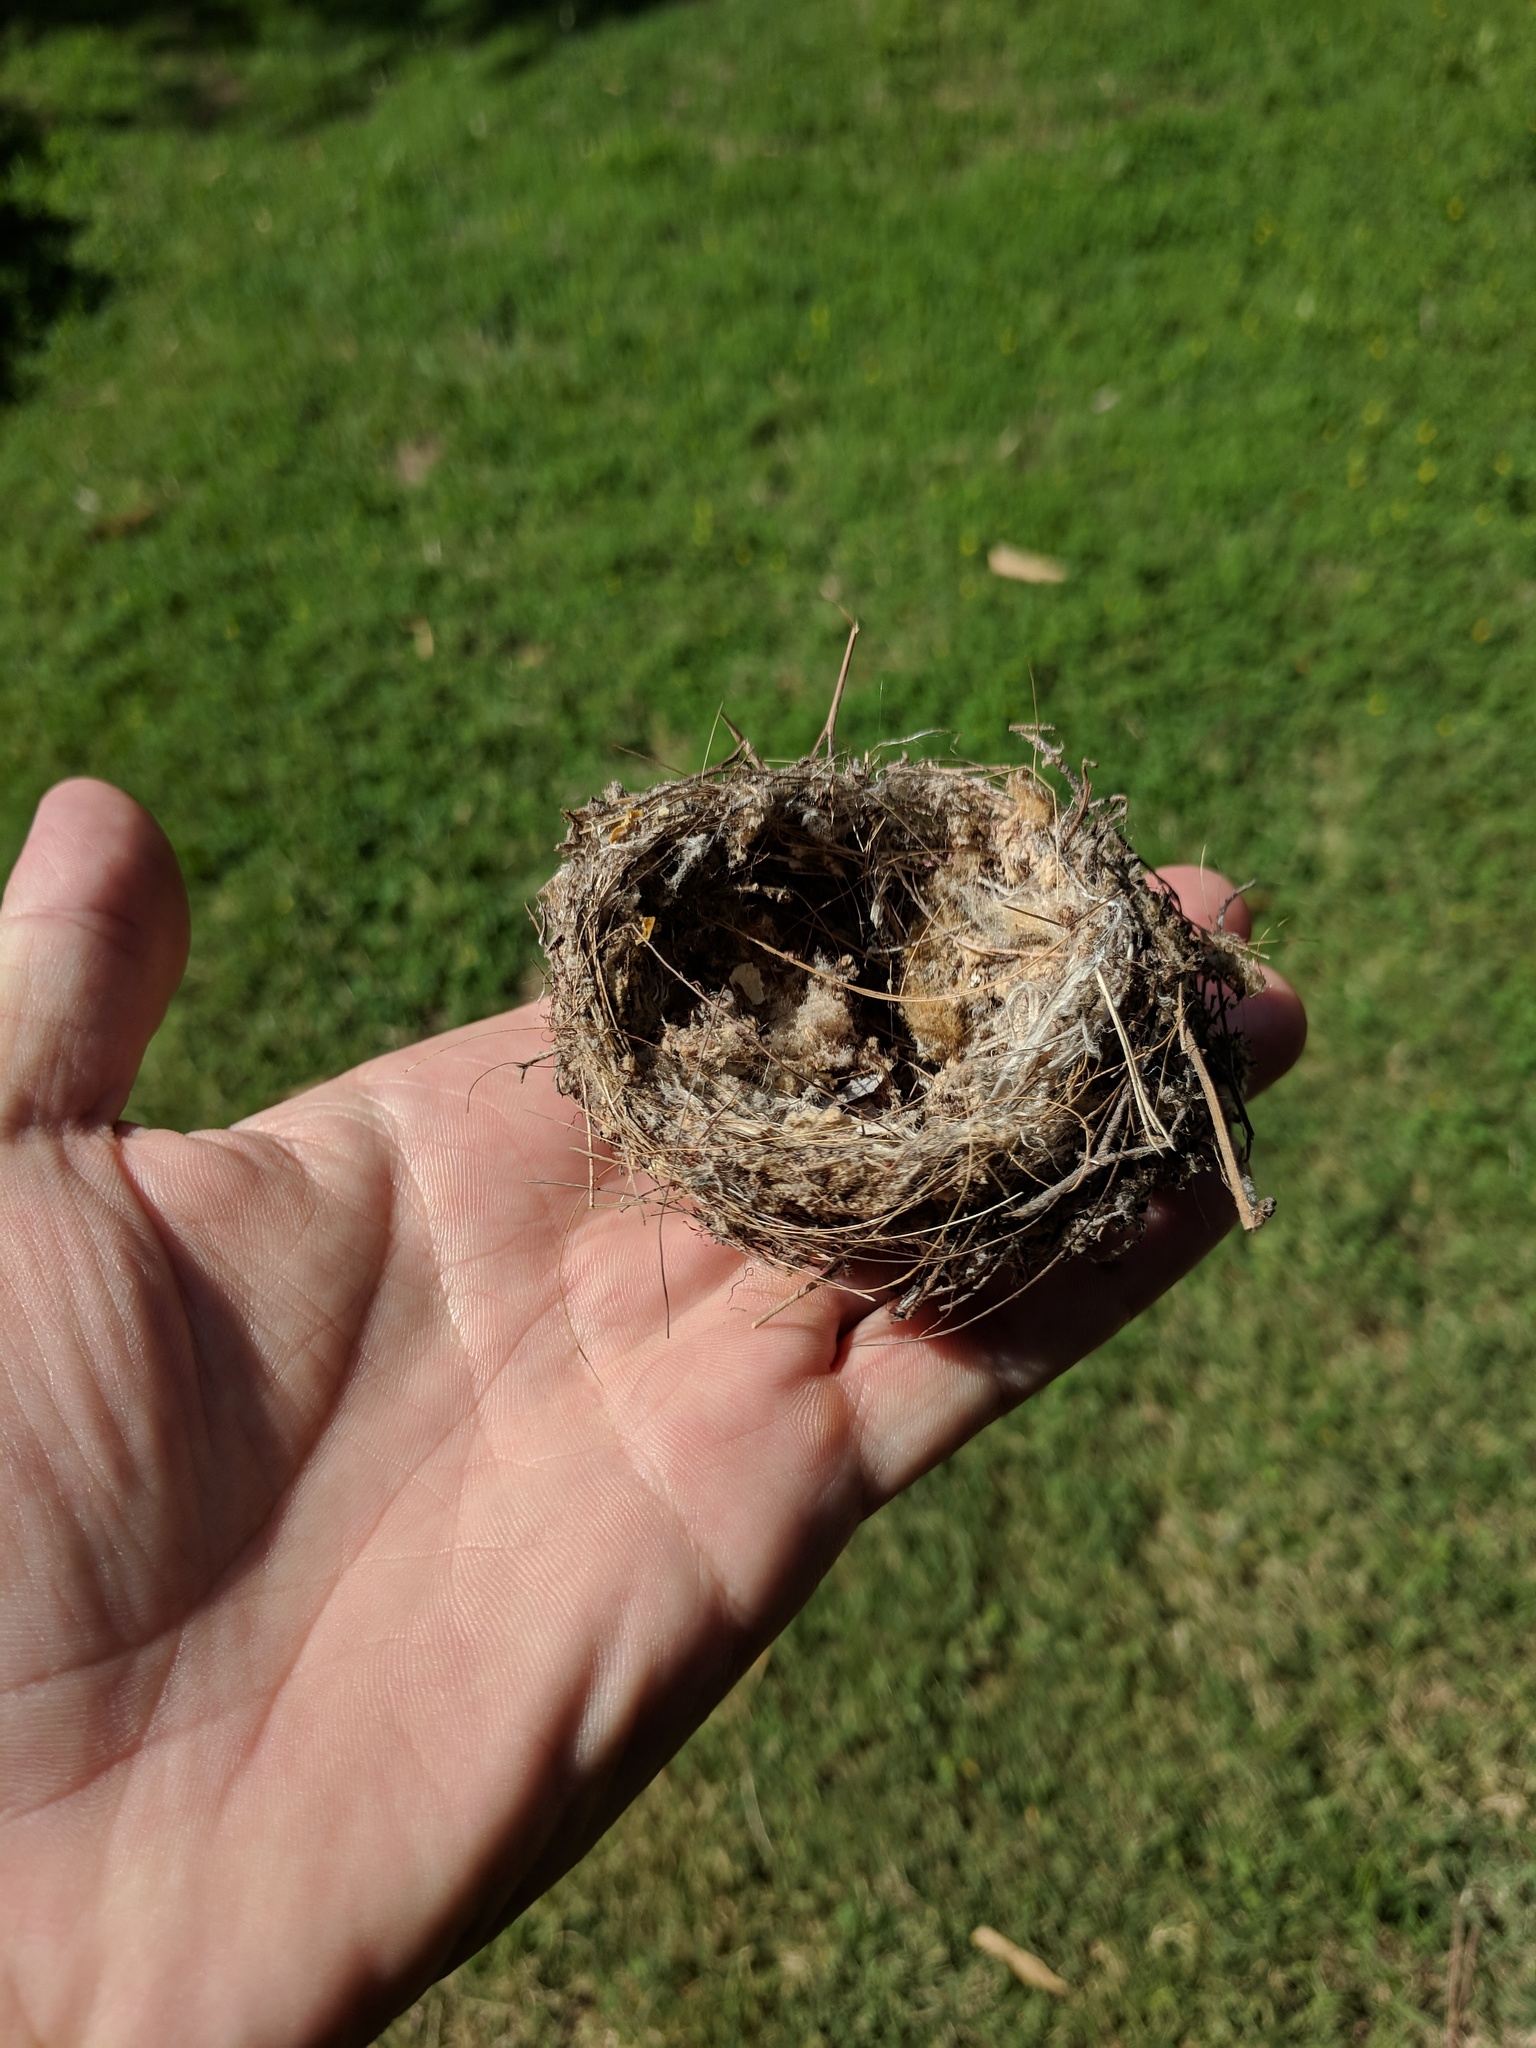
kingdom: Animalia
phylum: Chordata
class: Aves
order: Passeriformes
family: Fringillidae
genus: Spinus
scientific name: Spinus psaltria
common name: Lesser goldfinch
